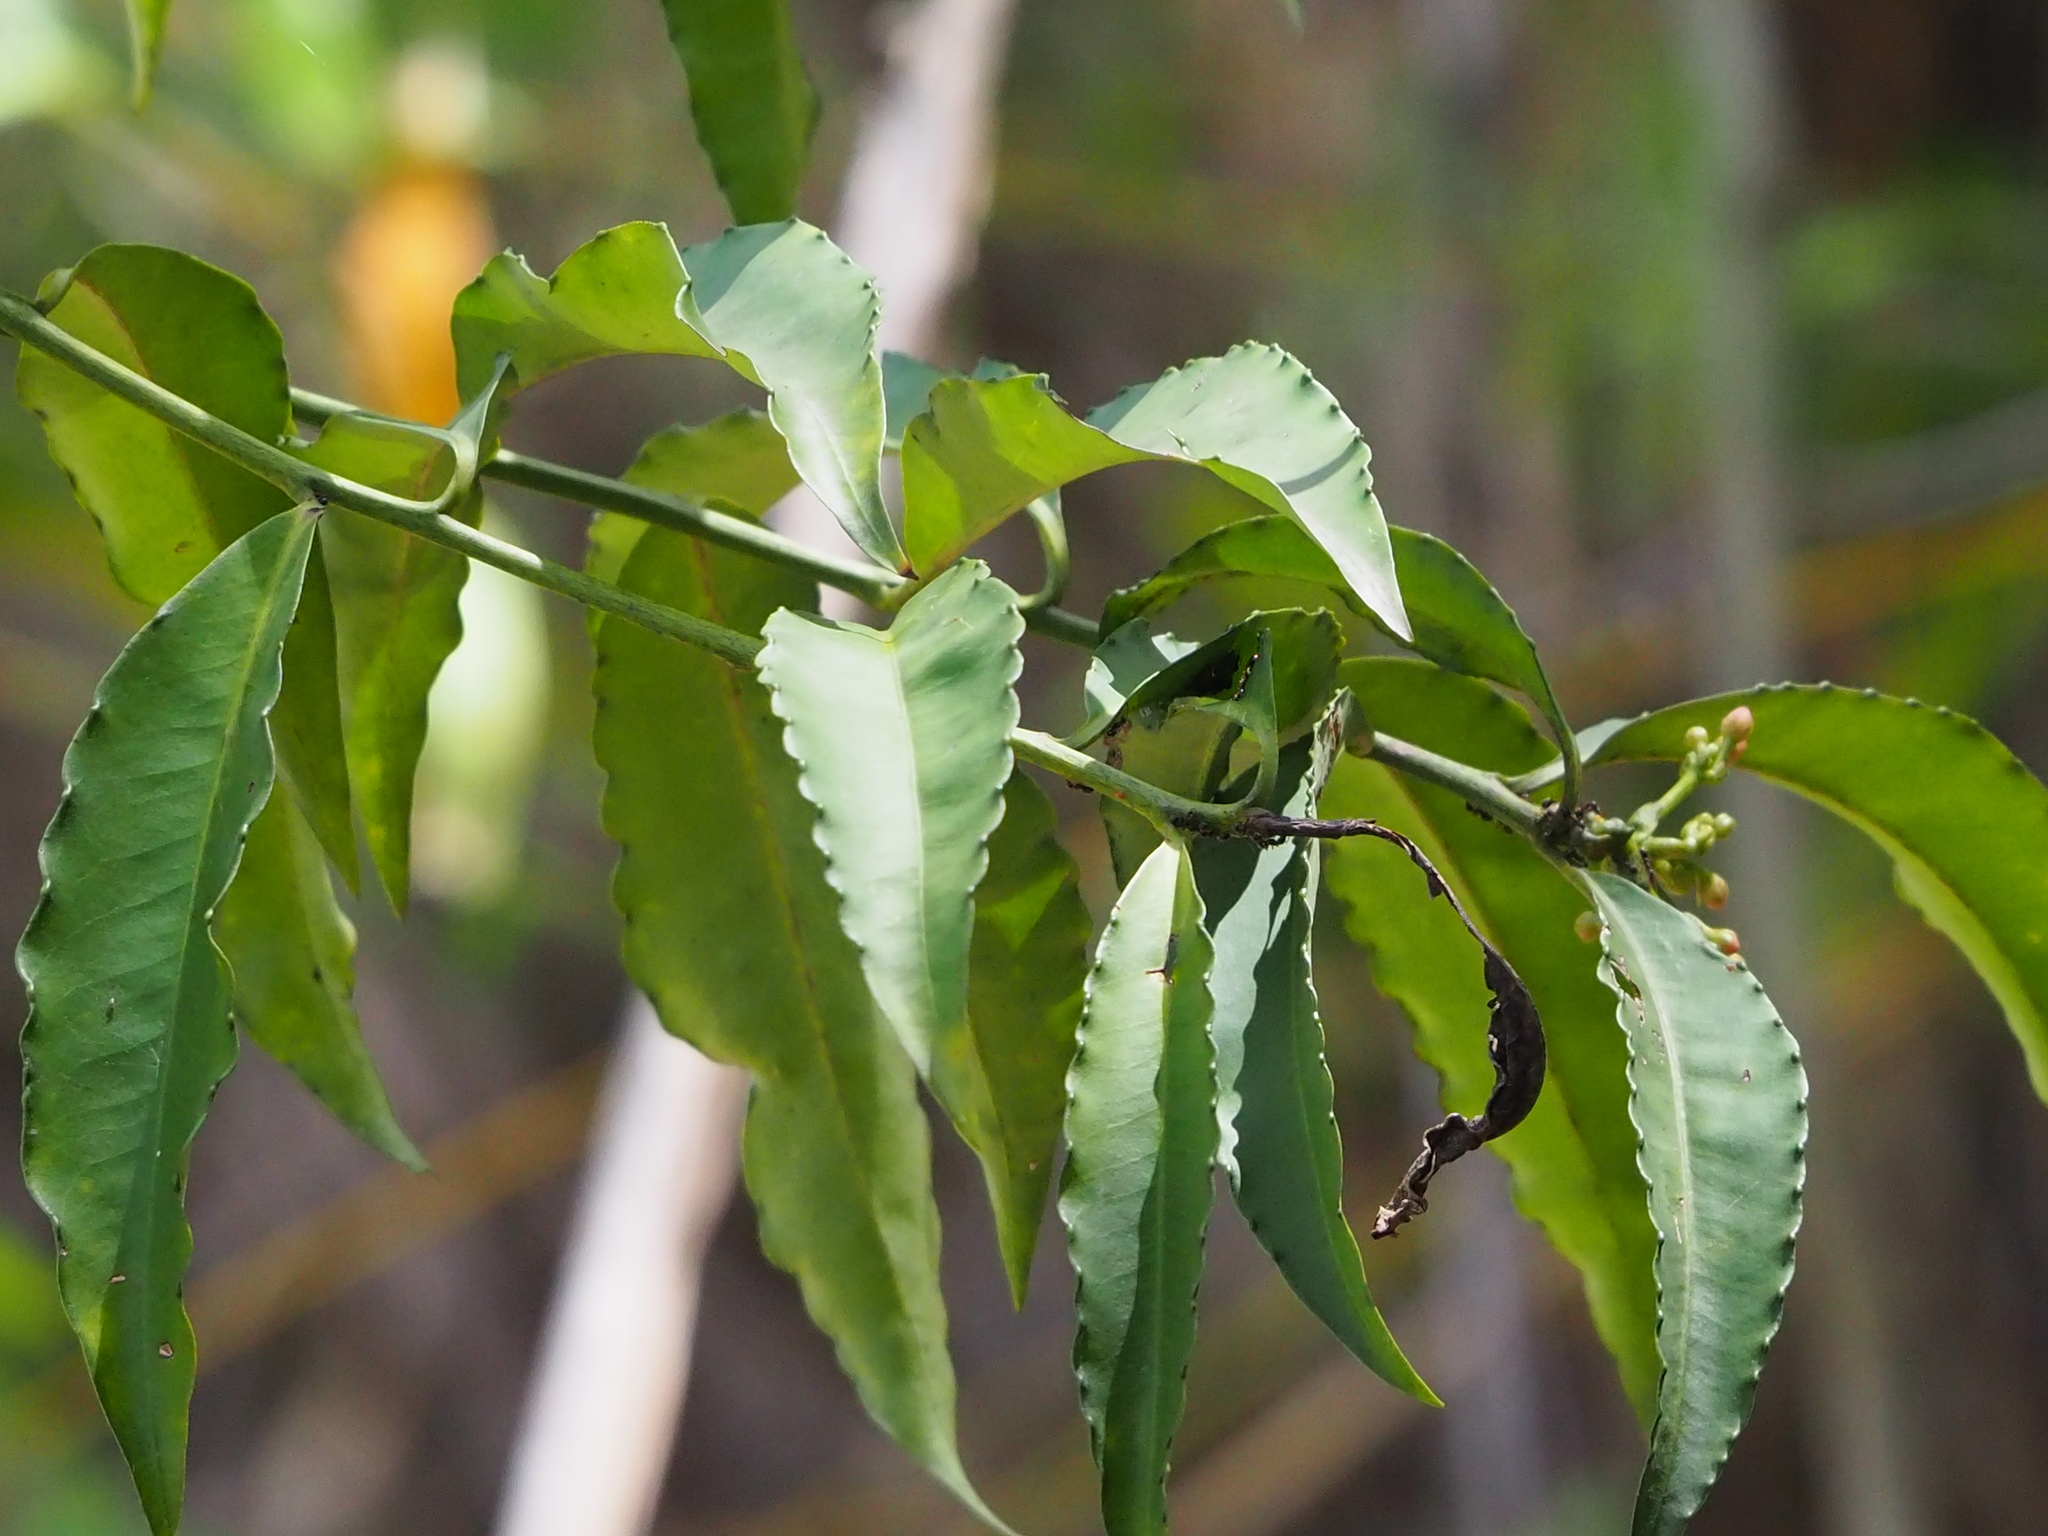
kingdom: Plantae
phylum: Tracheophyta
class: Magnoliopsida
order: Ericales
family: Primulaceae
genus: Ardisia
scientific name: Ardisia polysticta
